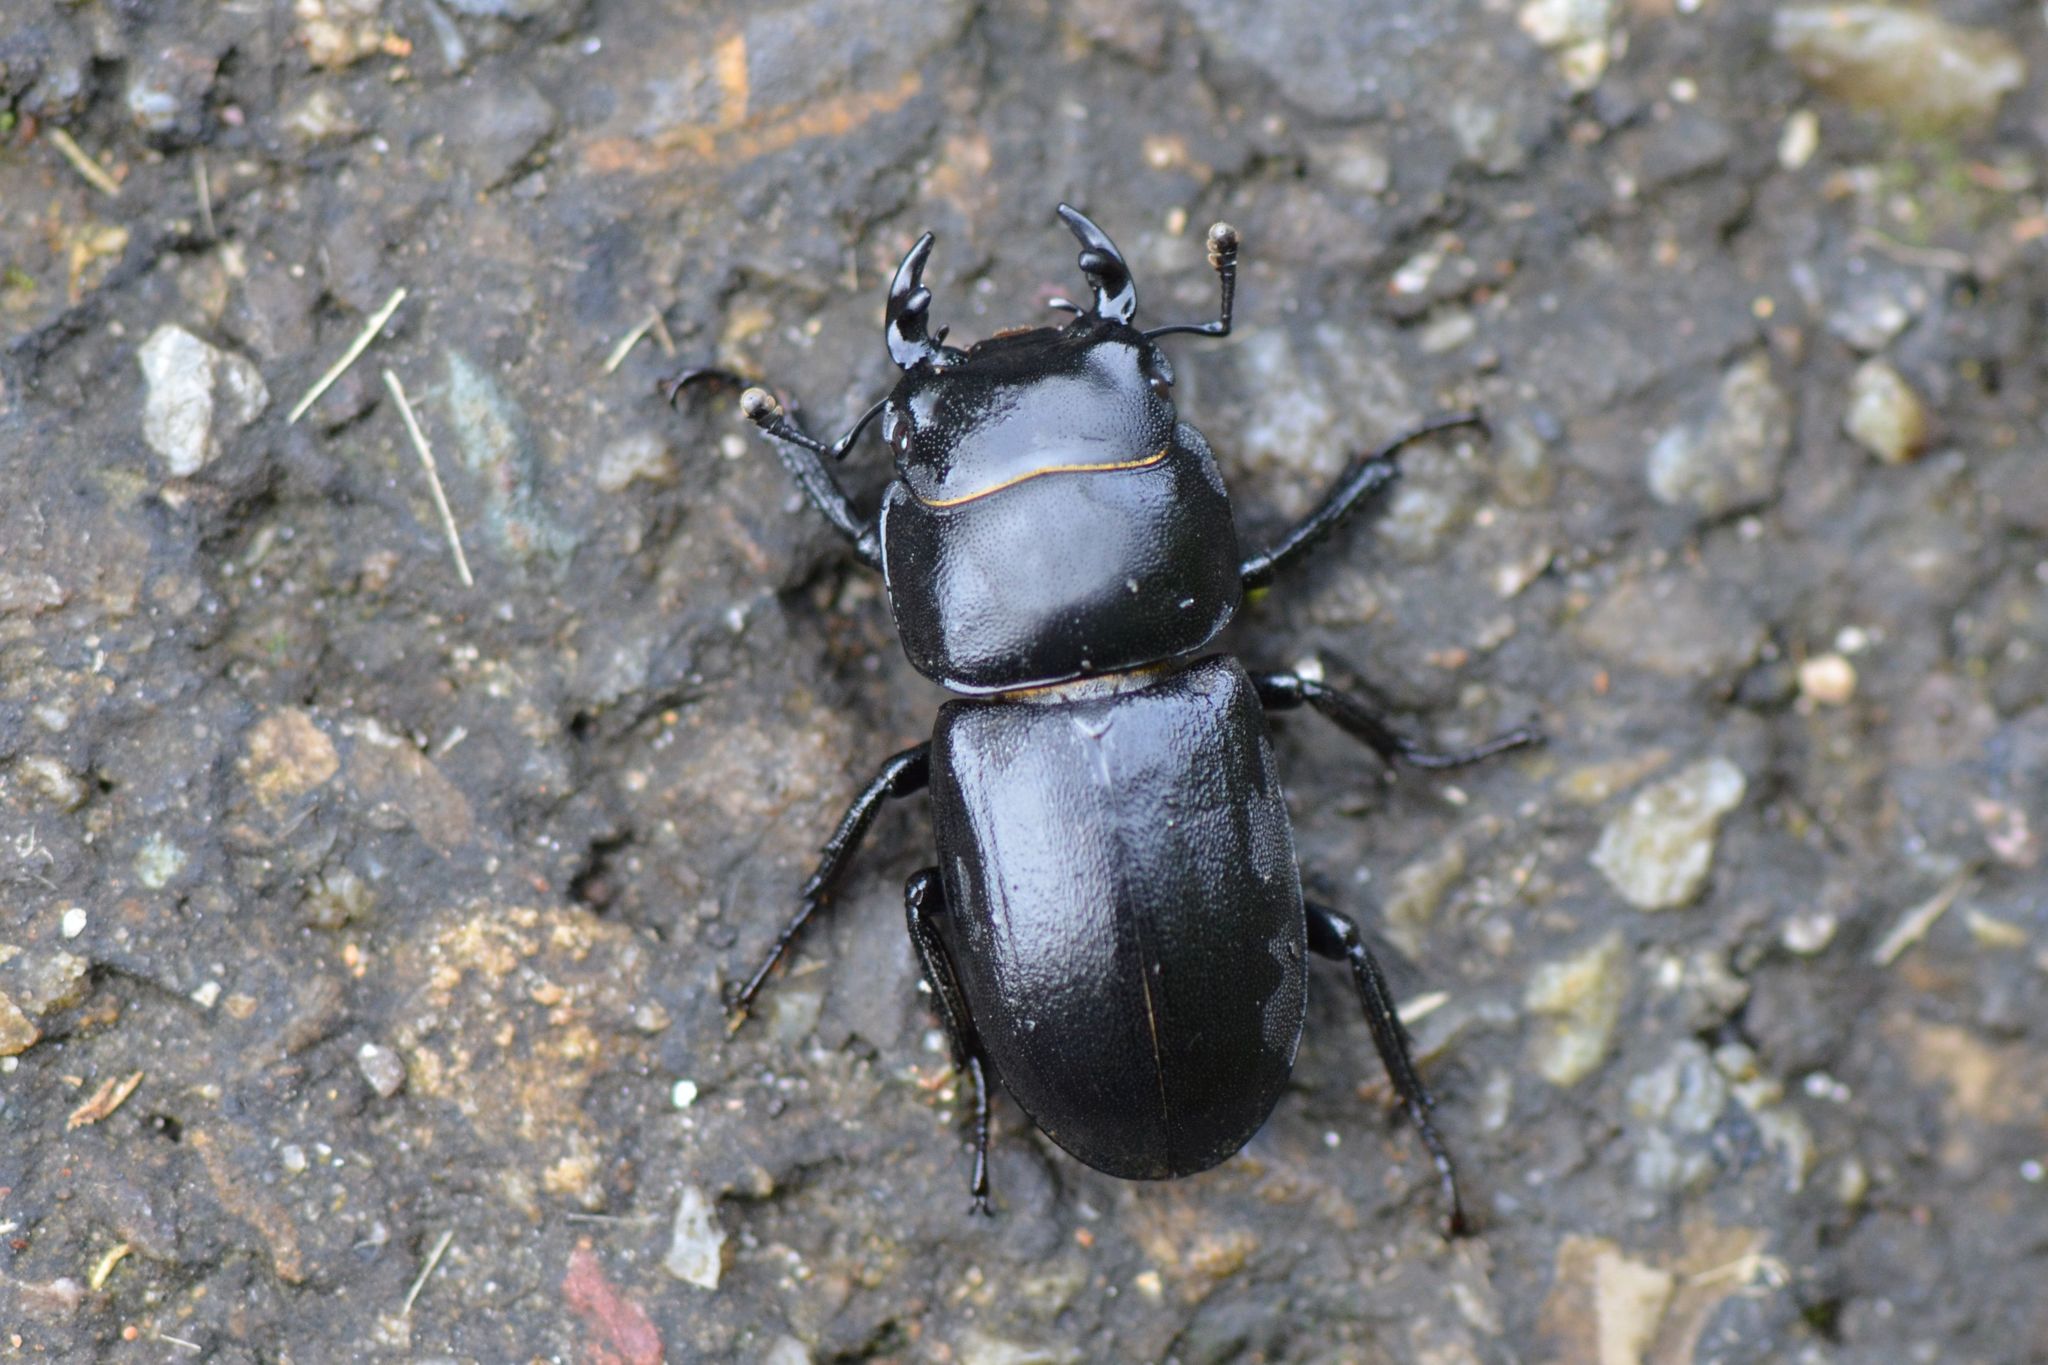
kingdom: Animalia
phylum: Arthropoda
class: Insecta
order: Coleoptera
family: Lucanidae
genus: Dorcus
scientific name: Dorcus parallelipipedus
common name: Lesser stag beetle
